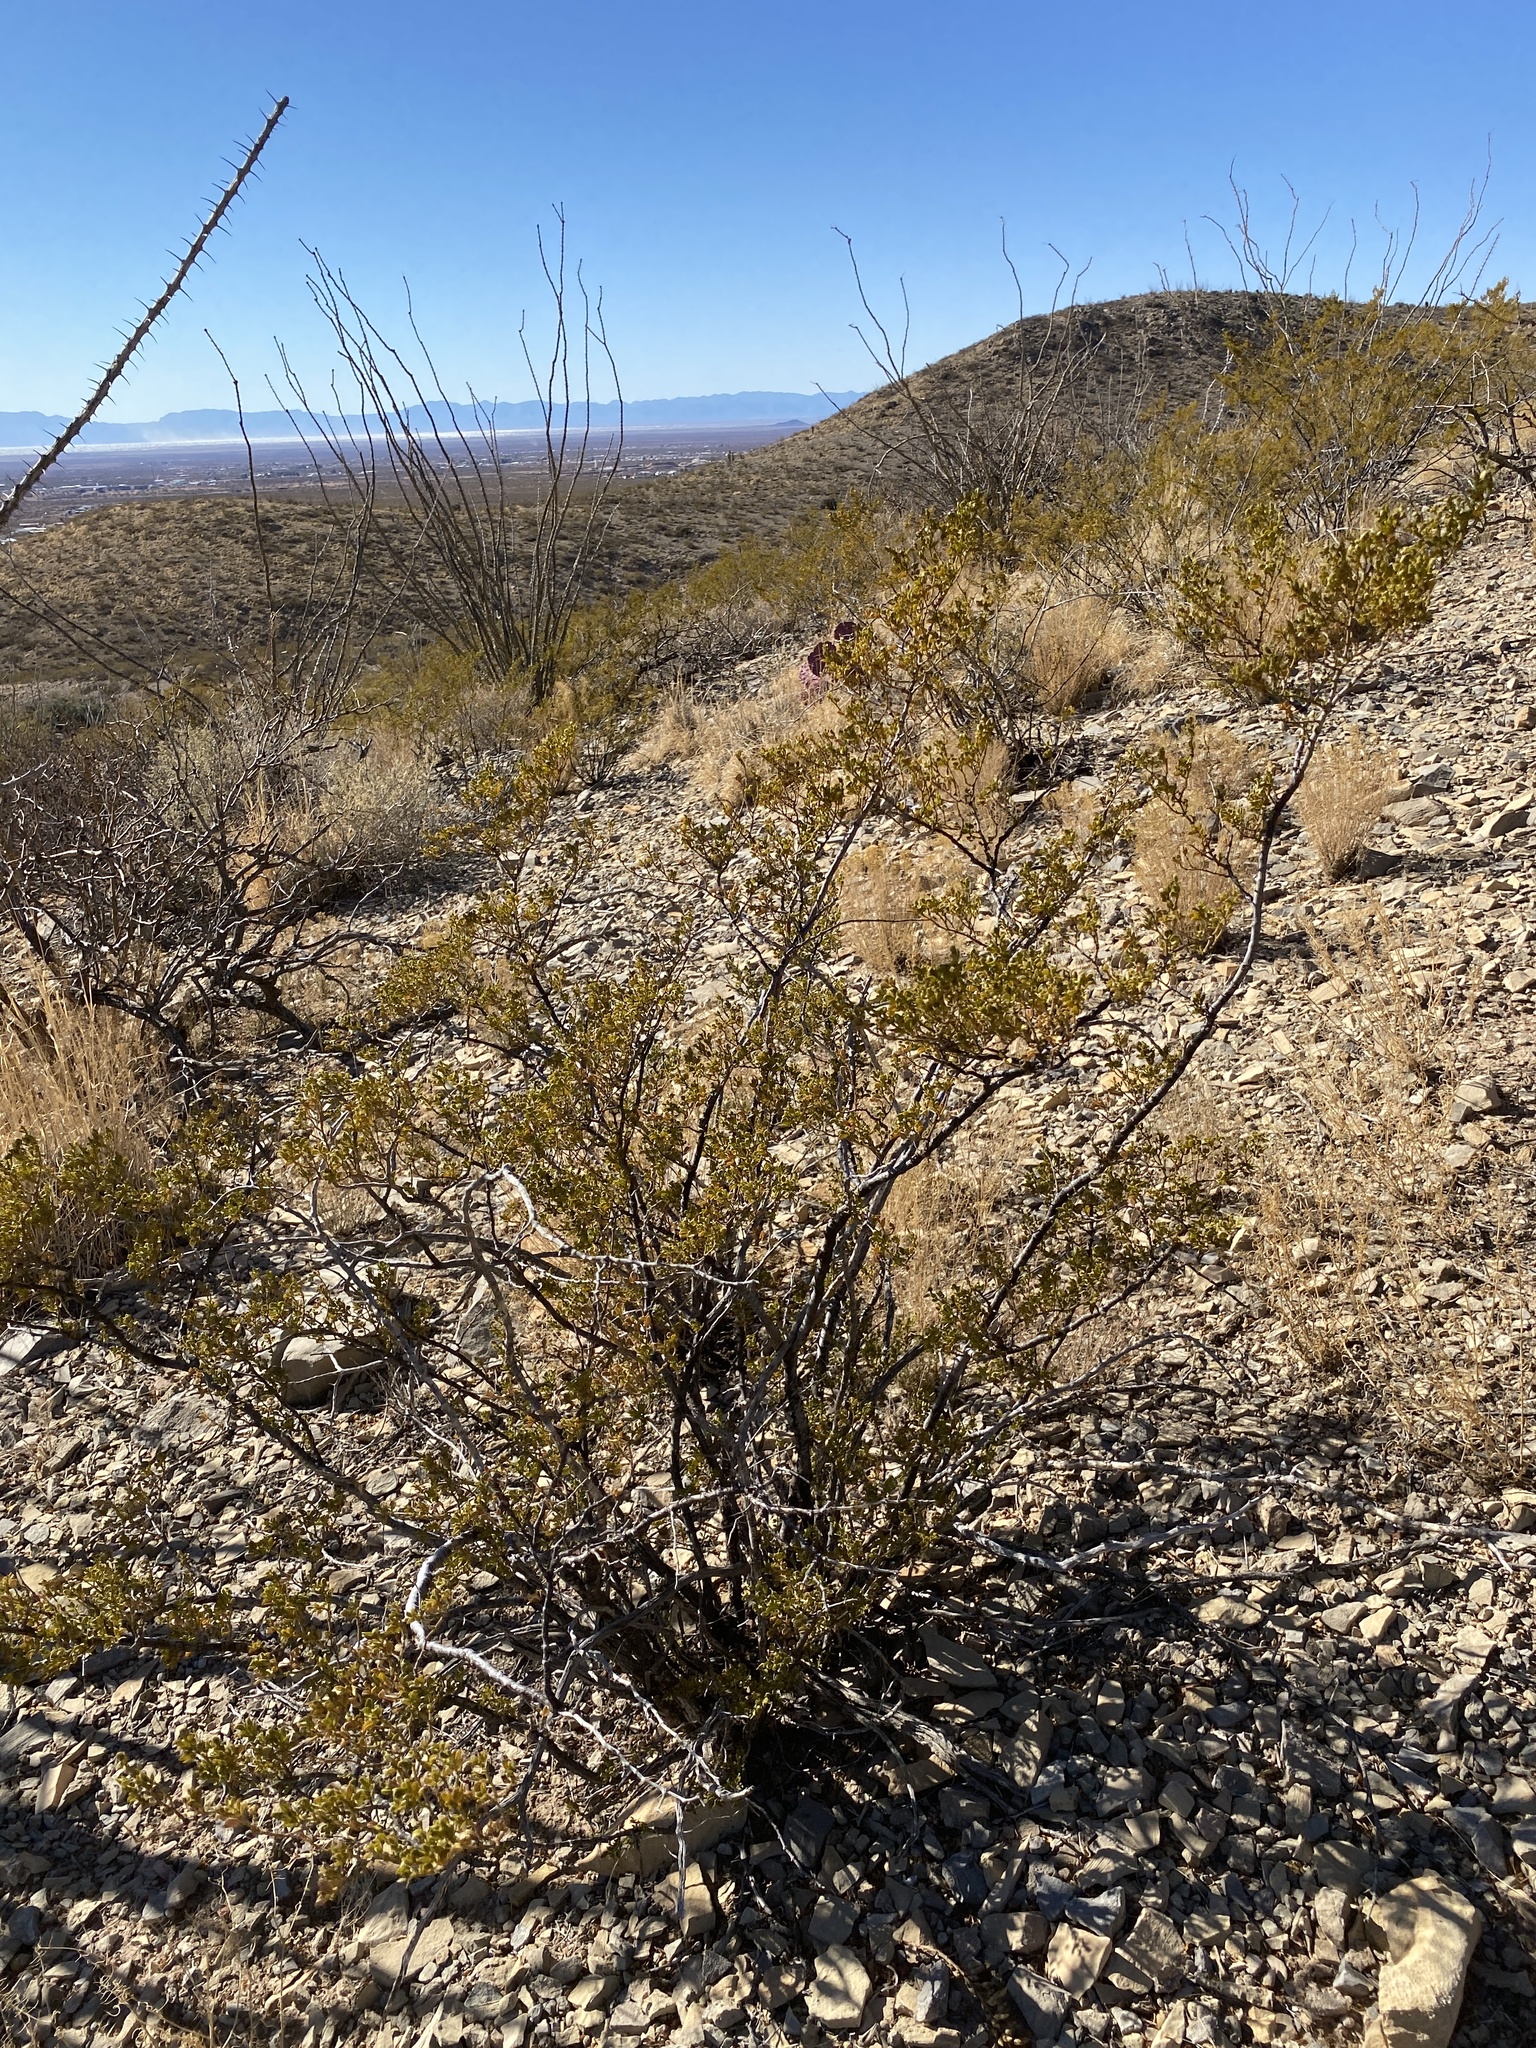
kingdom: Plantae
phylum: Tracheophyta
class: Magnoliopsida
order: Zygophyllales
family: Zygophyllaceae
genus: Larrea
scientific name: Larrea tridentata
